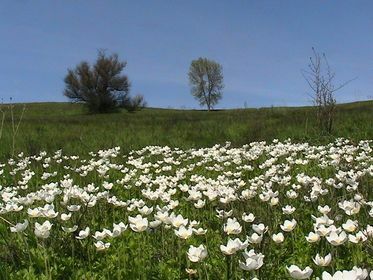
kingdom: Plantae
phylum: Tracheophyta
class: Magnoliopsida
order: Ranunculales
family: Ranunculaceae
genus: Anemone
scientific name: Anemone sylvestris
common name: Snowdrop anemone
